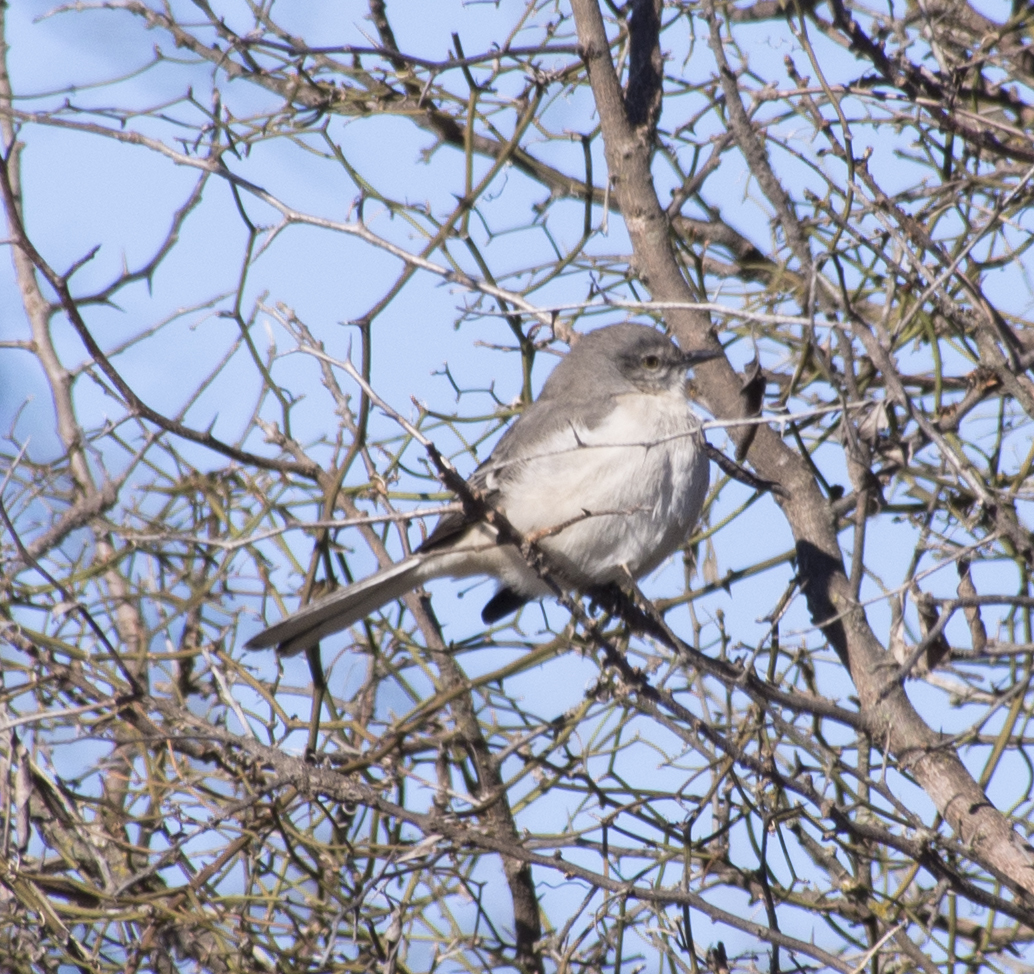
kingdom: Animalia
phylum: Chordata
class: Aves
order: Passeriformes
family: Mimidae
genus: Mimus
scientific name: Mimus polyglottos
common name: Northern mockingbird
